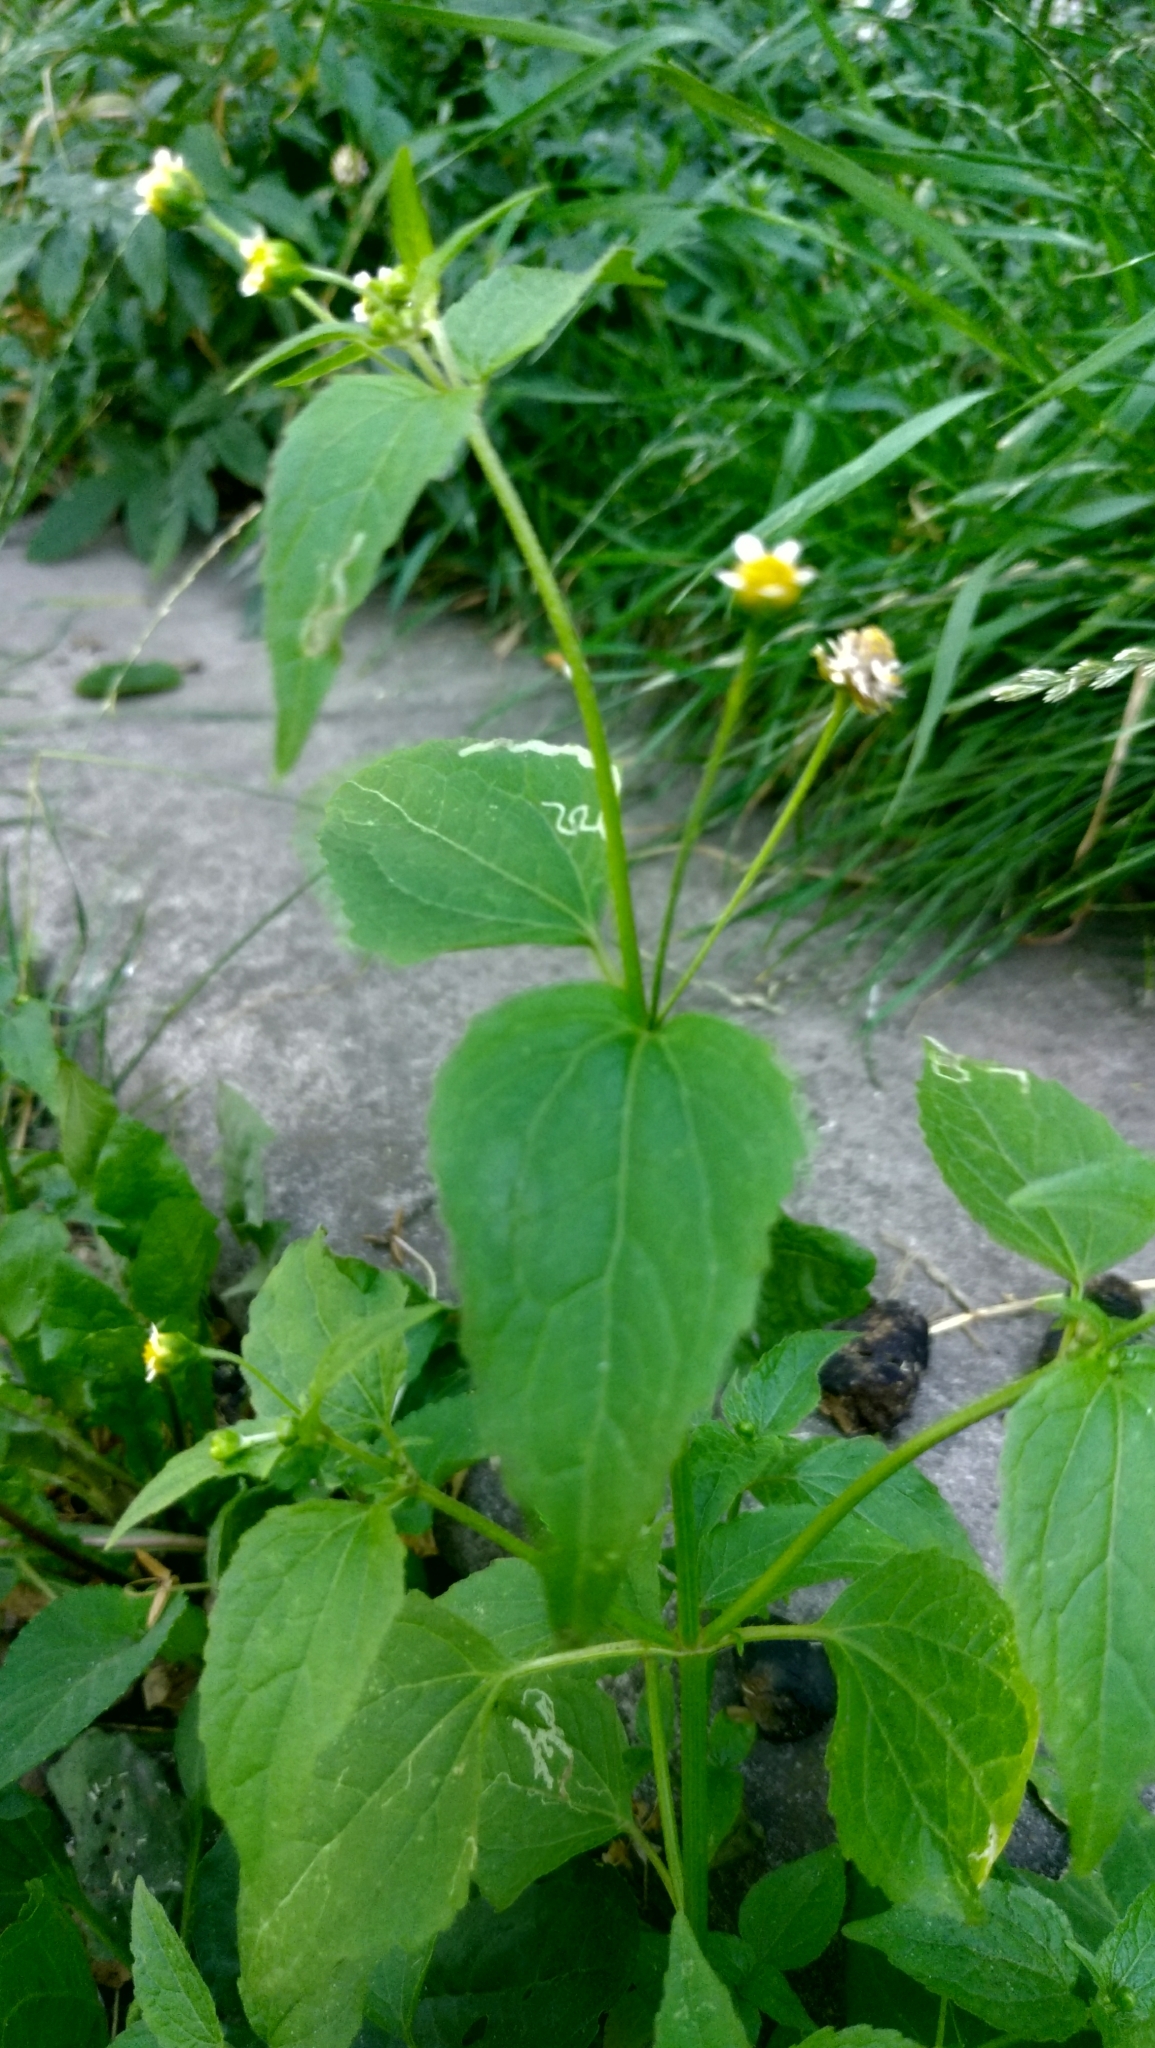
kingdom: Plantae
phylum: Tracheophyta
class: Magnoliopsida
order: Asterales
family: Asteraceae
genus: Galinsoga
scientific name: Galinsoga parviflora
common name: Gallant soldier
